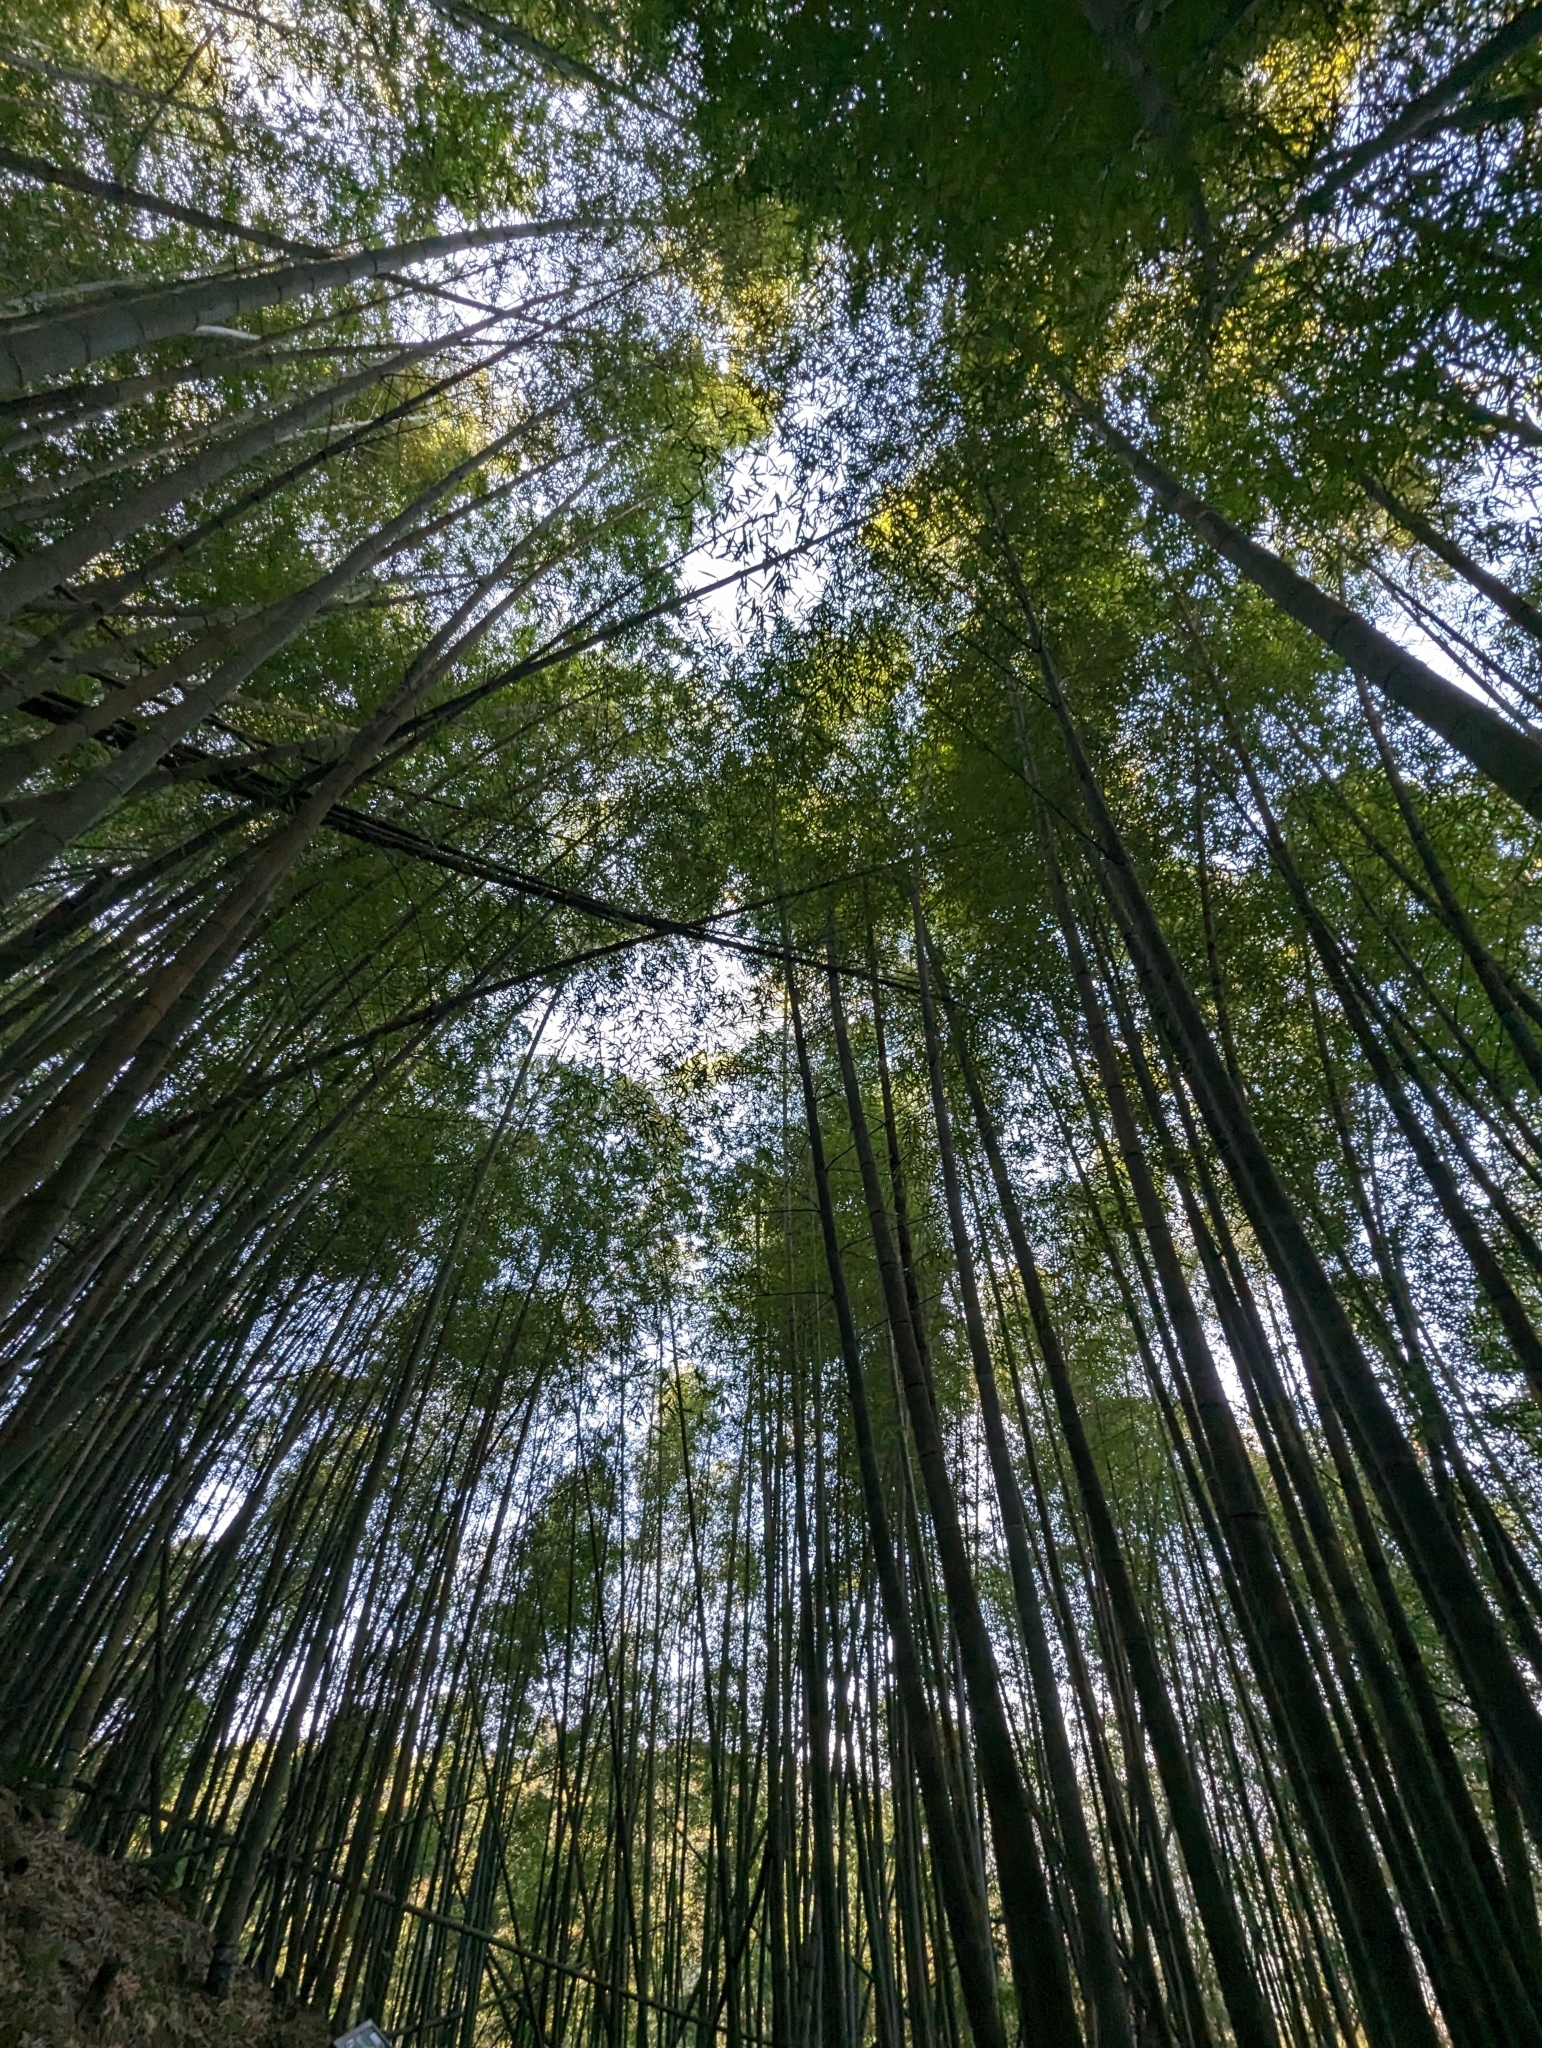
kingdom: Plantae
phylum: Tracheophyta
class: Liliopsida
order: Poales
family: Poaceae
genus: Phyllostachys
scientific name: Phyllostachys edulis
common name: Tortoise shell bamboo
